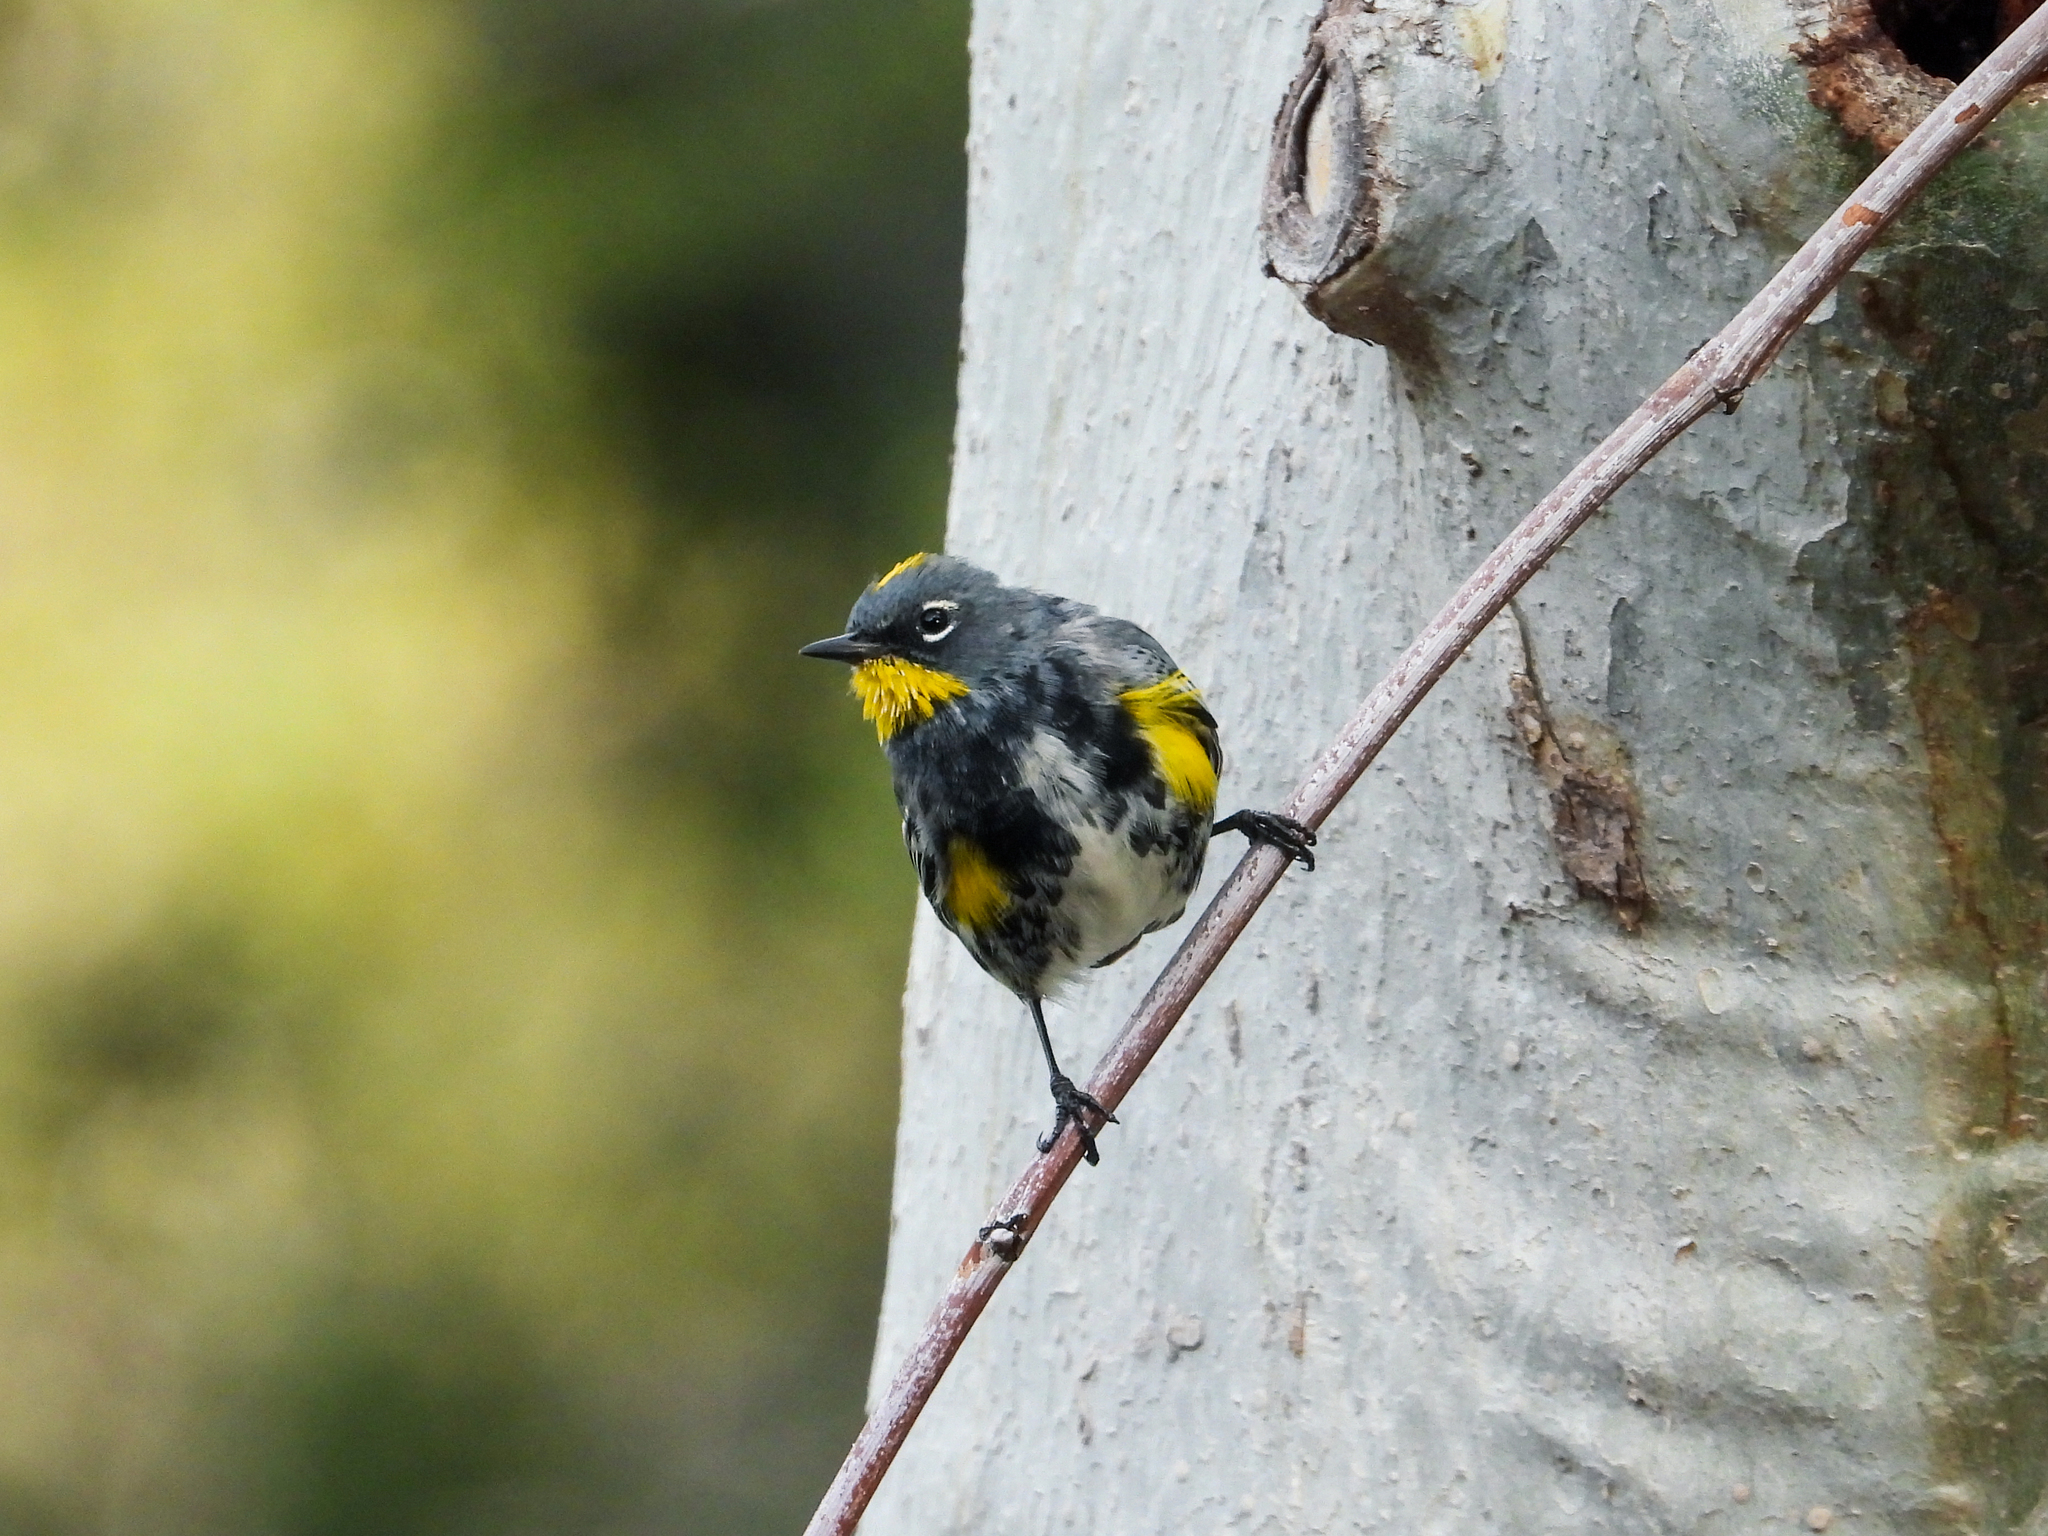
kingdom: Animalia
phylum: Chordata
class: Aves
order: Passeriformes
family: Parulidae
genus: Setophaga
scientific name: Setophaga coronata
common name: Myrtle warbler
